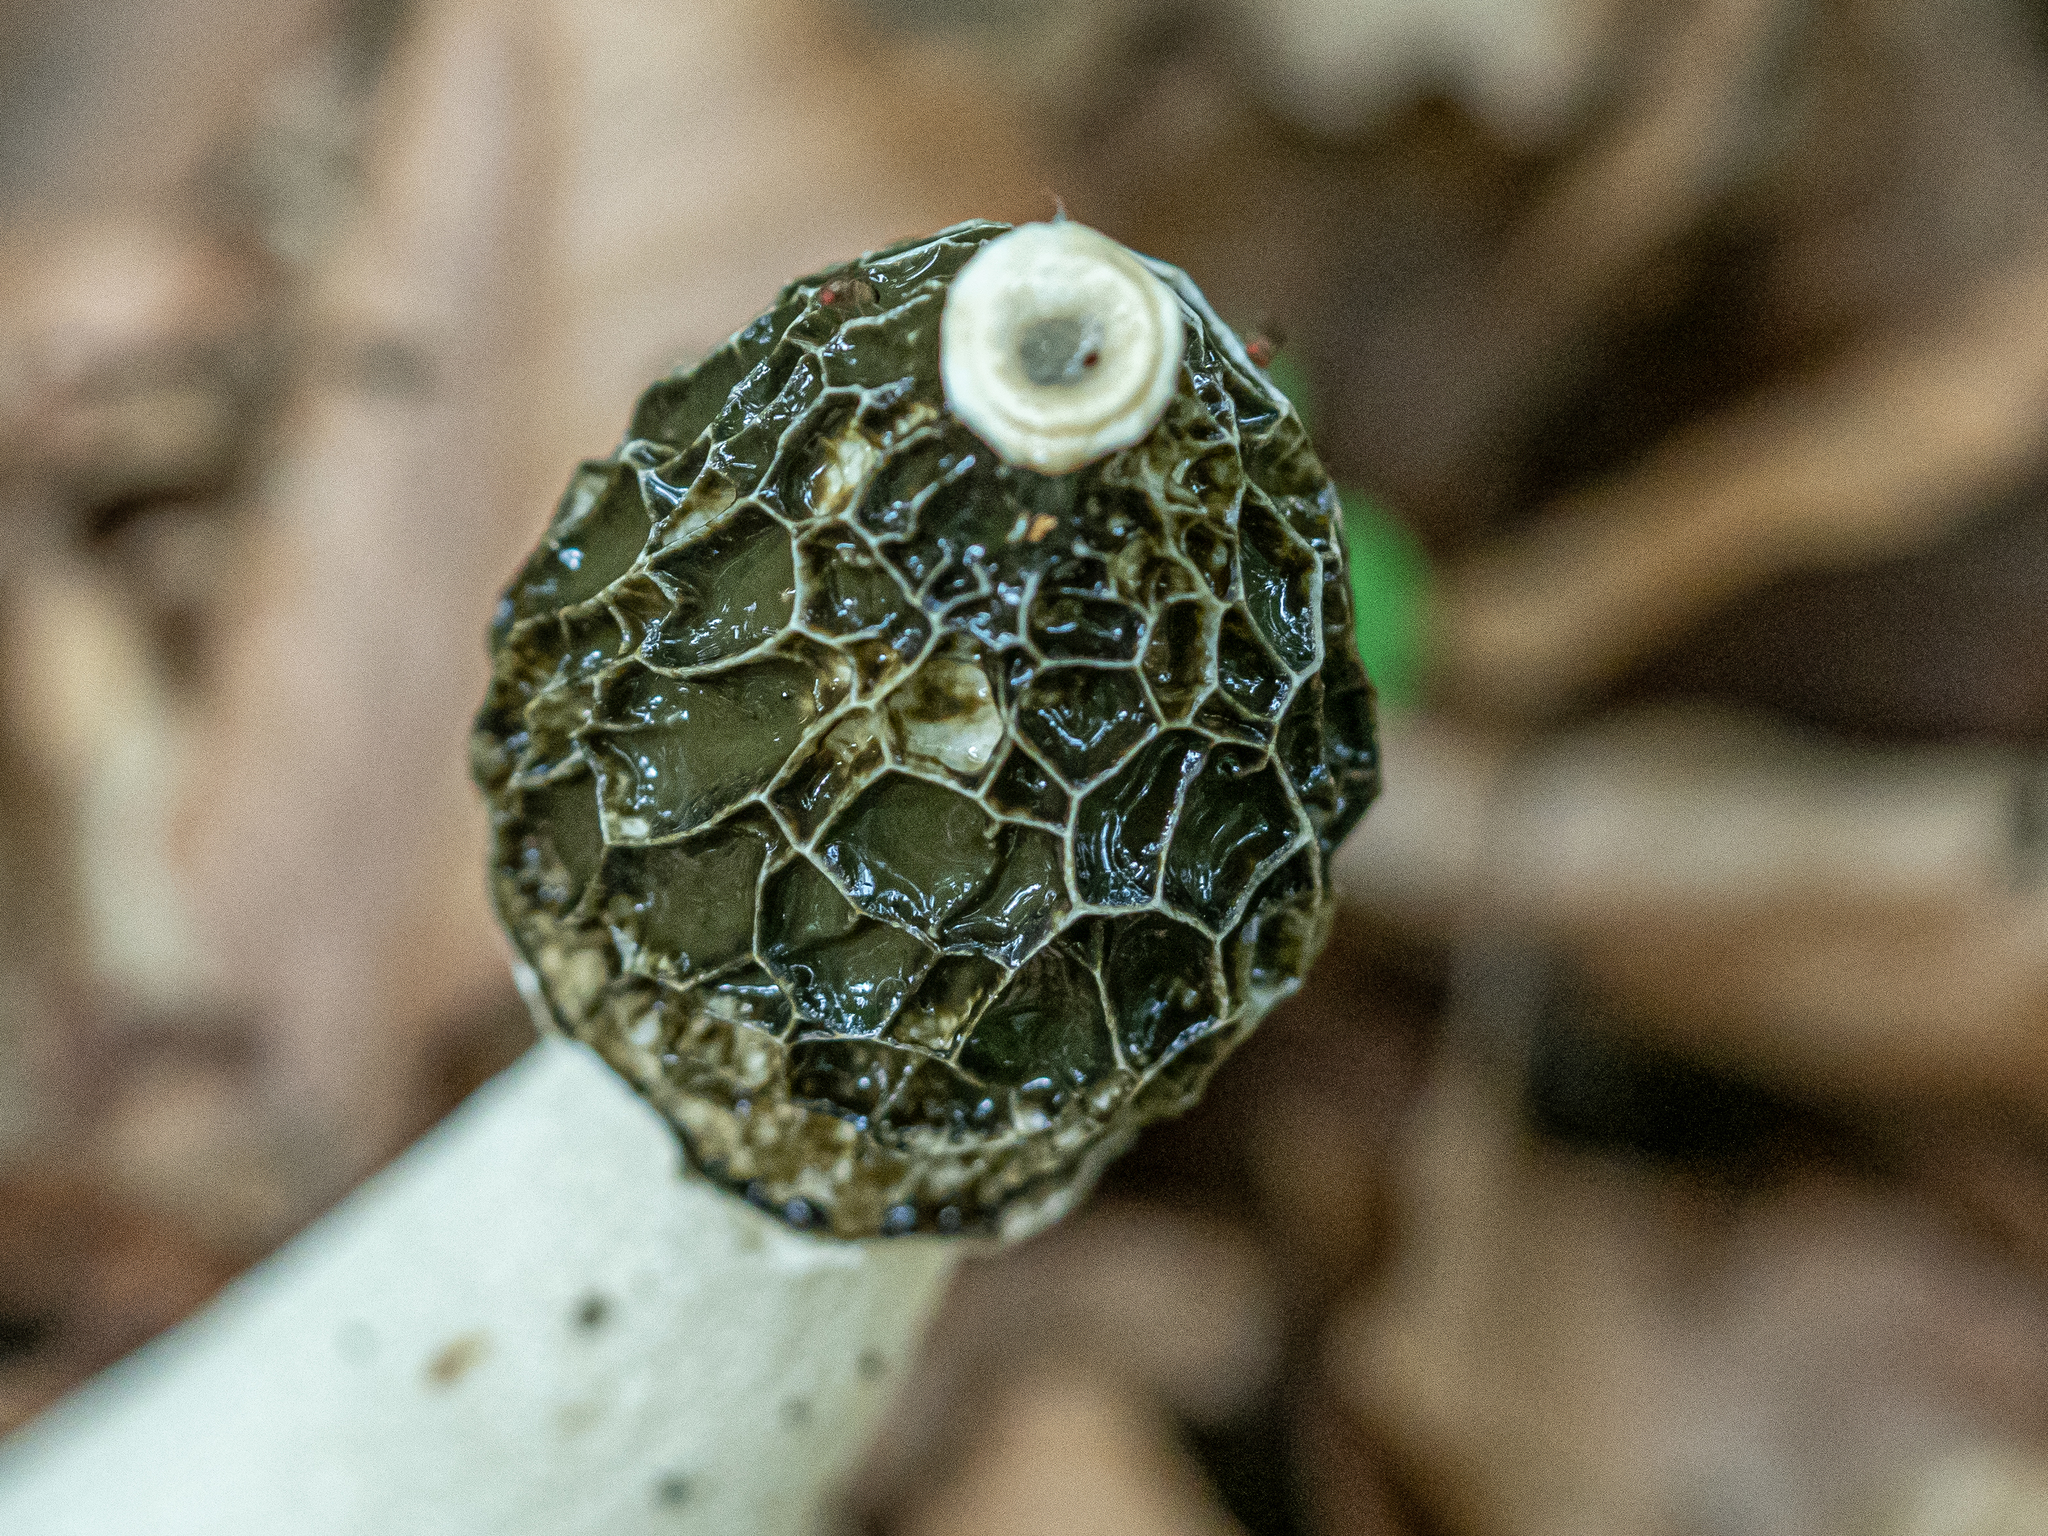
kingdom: Fungi
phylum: Basidiomycota
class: Agaricomycetes
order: Phallales
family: Phallaceae
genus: Phallus
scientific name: Phallus impudicus
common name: Common stinkhorn
